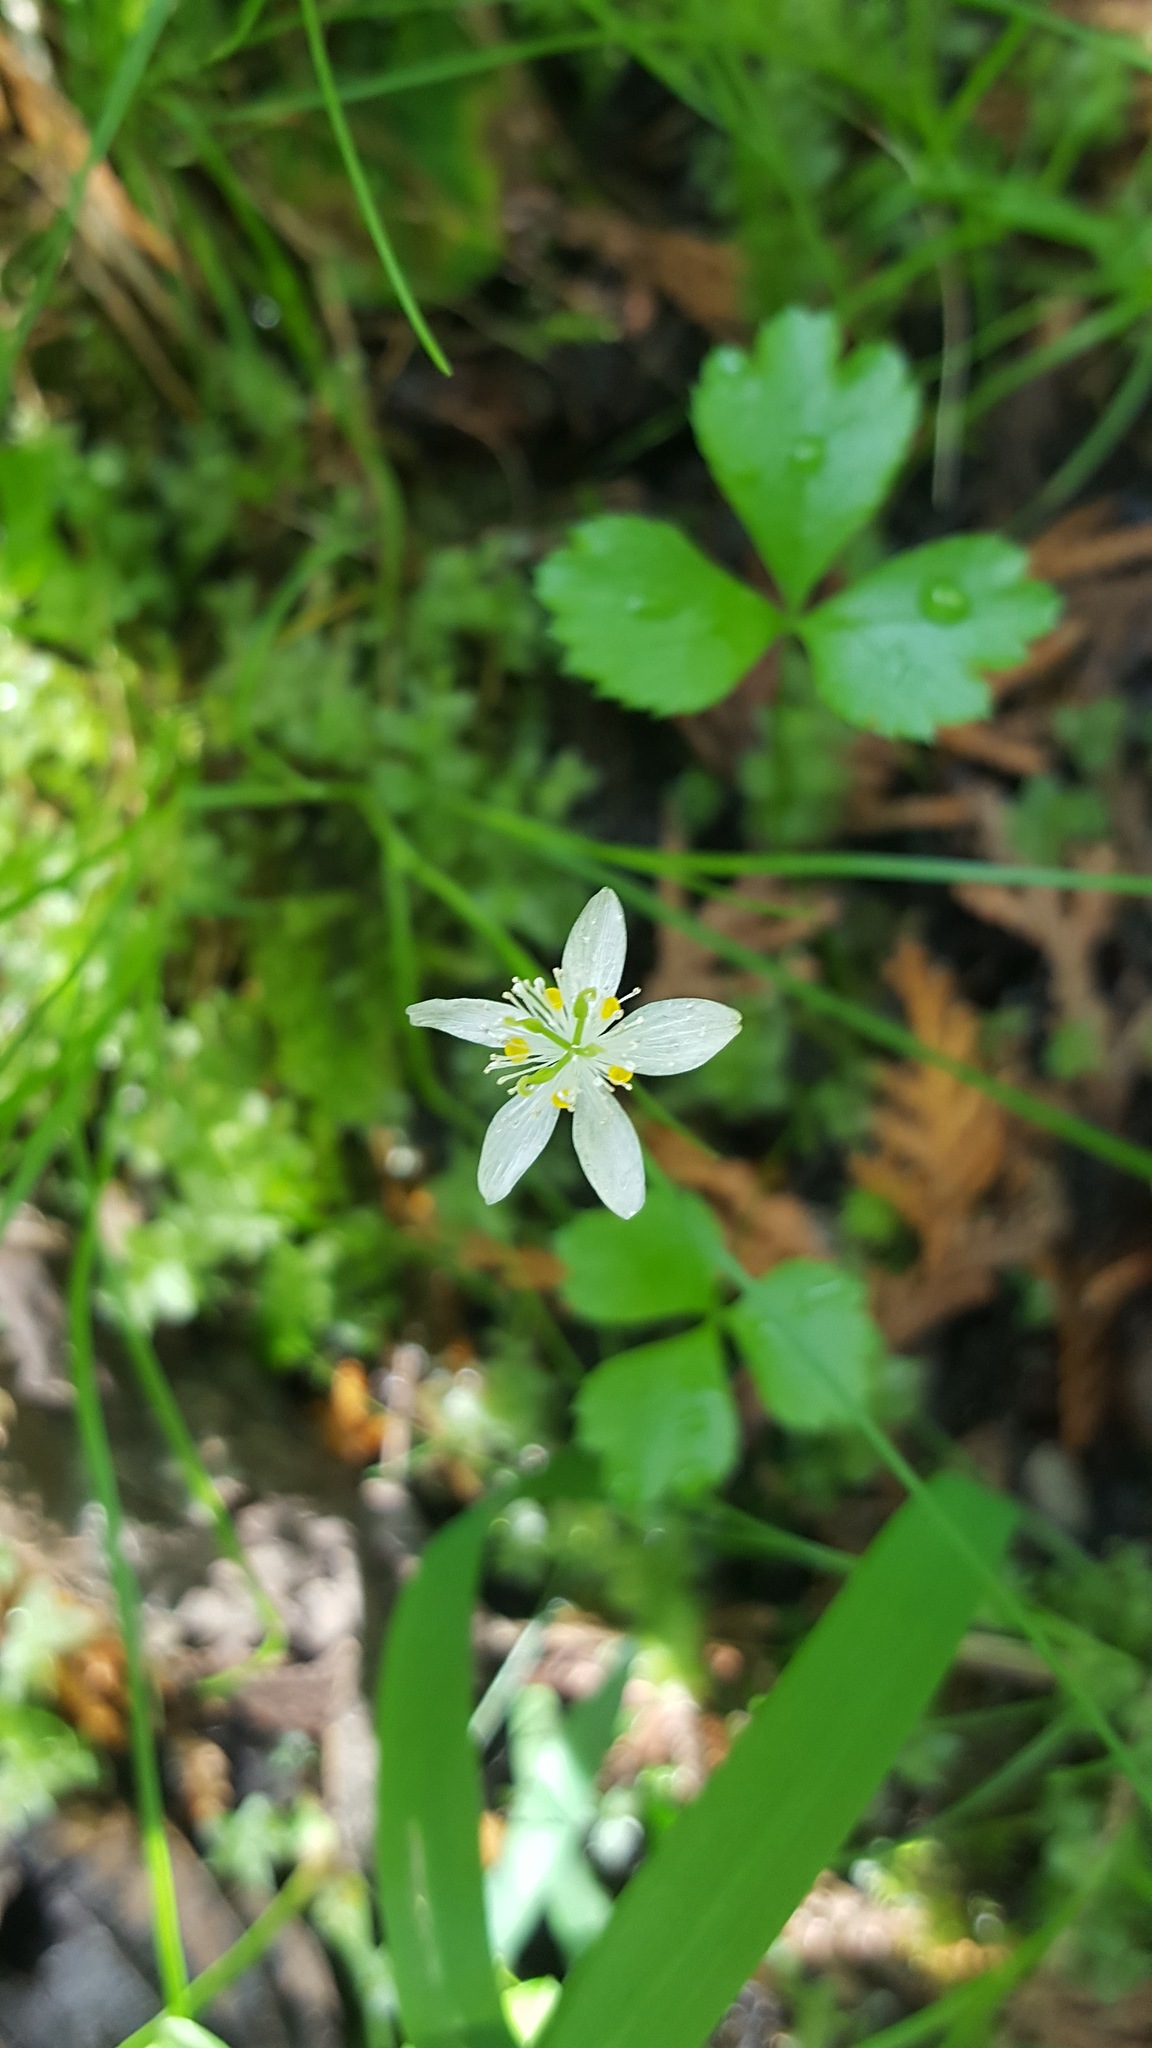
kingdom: Plantae
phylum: Tracheophyta
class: Magnoliopsida
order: Ranunculales
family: Ranunculaceae
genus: Coptis
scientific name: Coptis trifolia
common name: Canker-root
